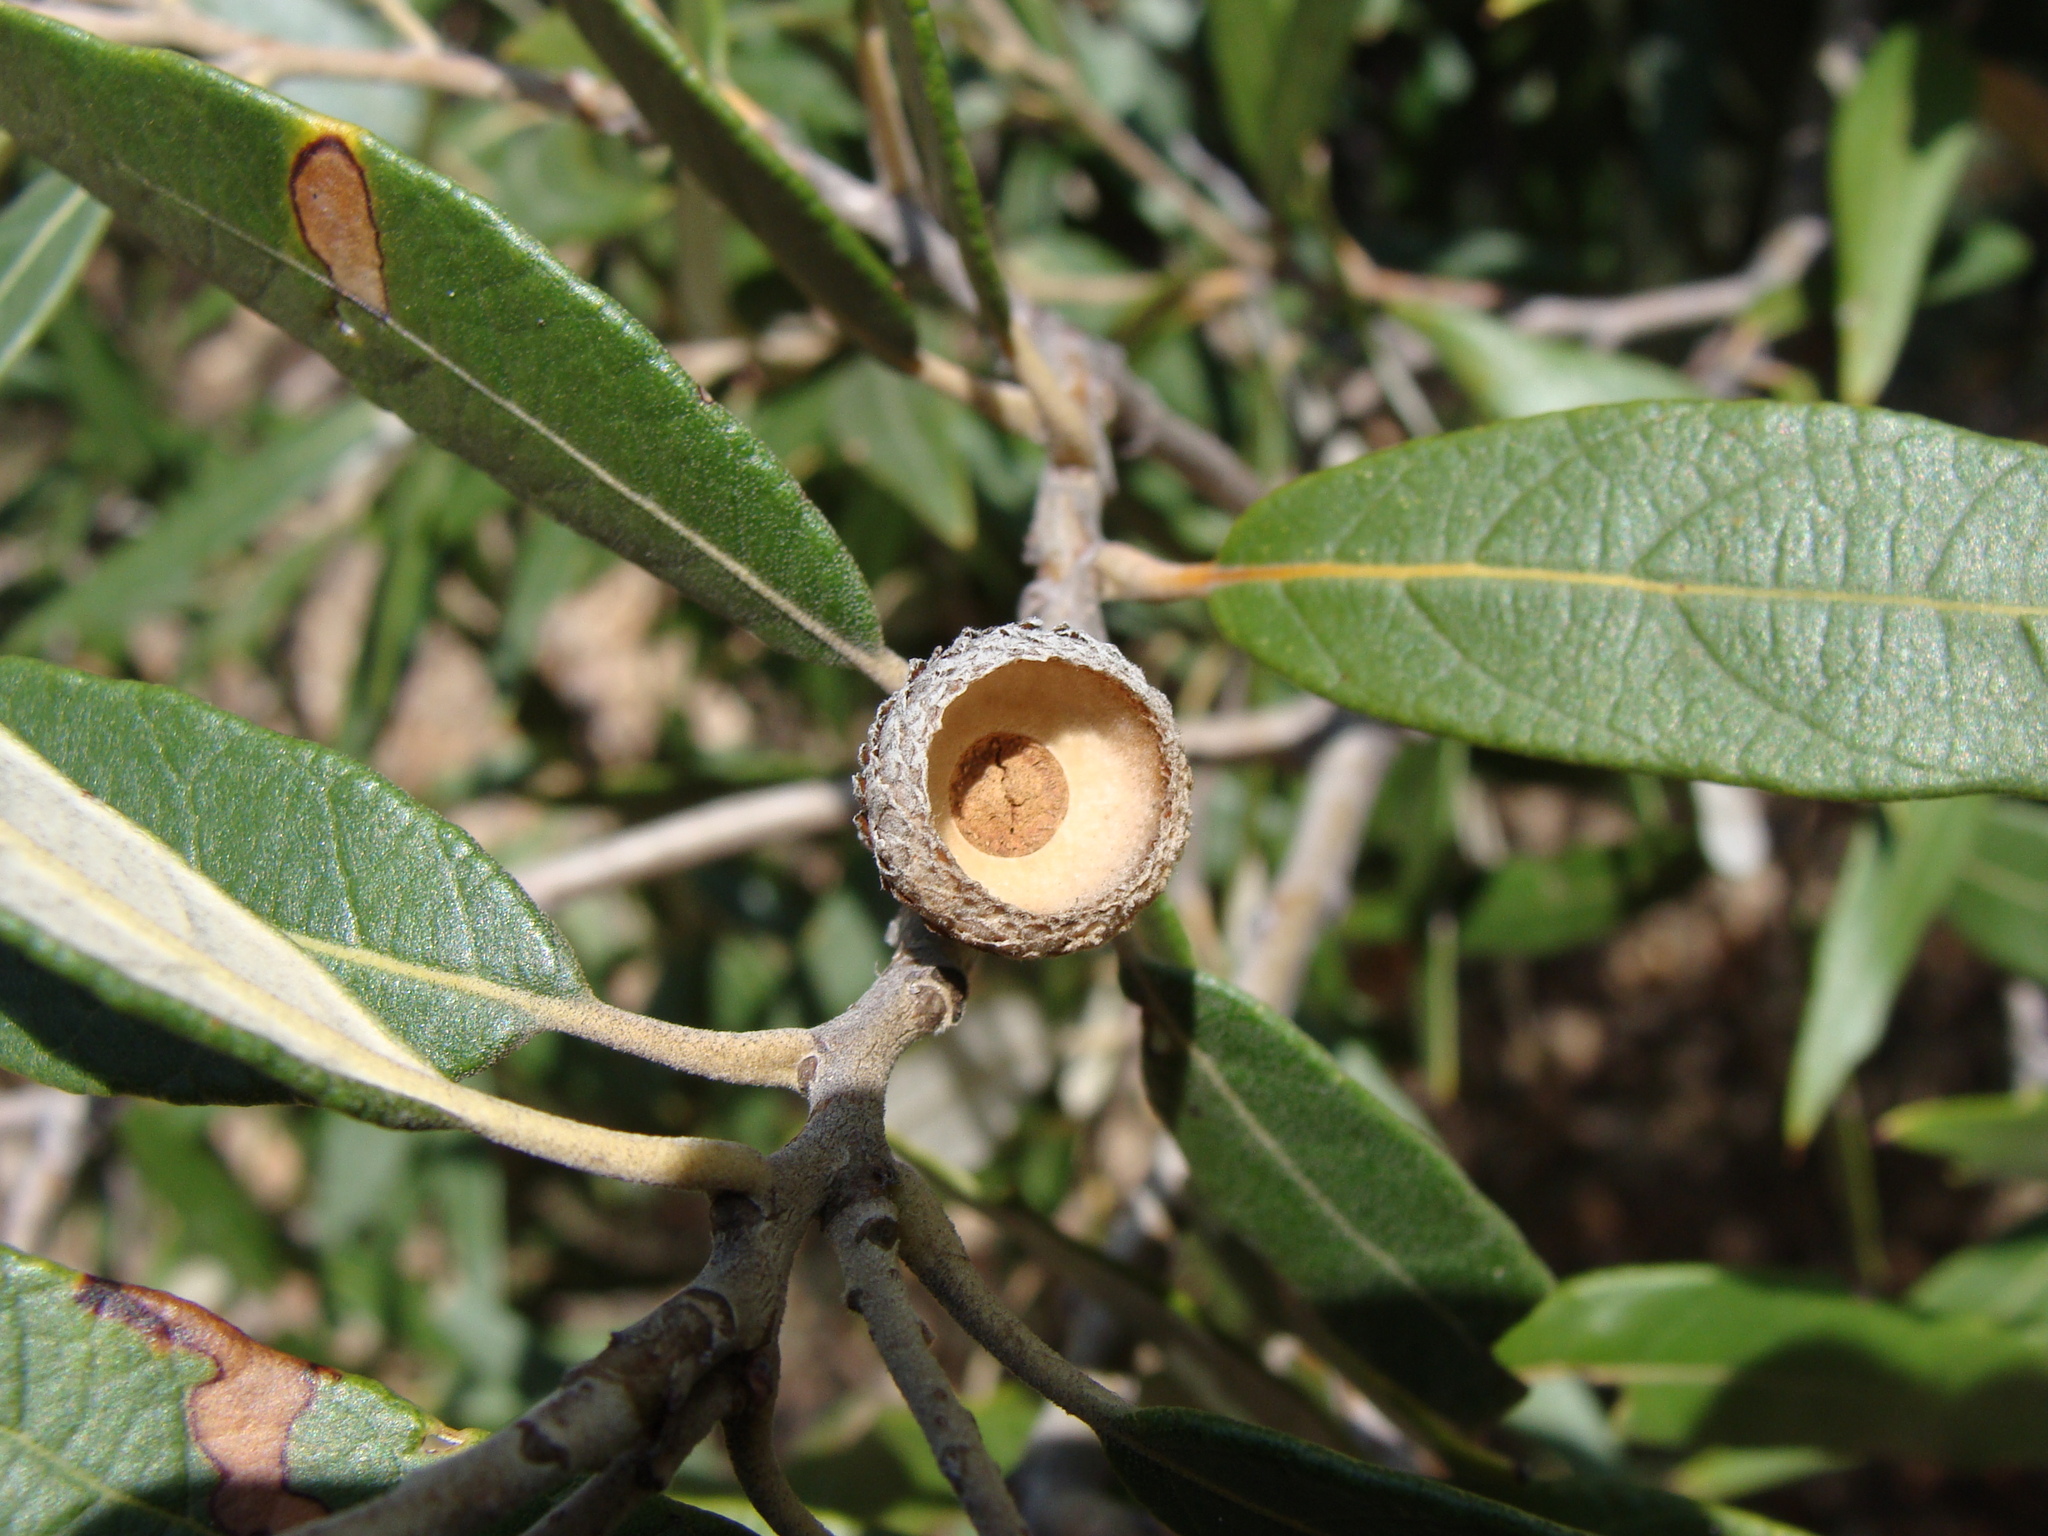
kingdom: Plantae
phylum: Tracheophyta
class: Magnoliopsida
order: Fagales
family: Fagaceae
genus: Quercus
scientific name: Quercus hypoleucoides
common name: Silverleaf oak
